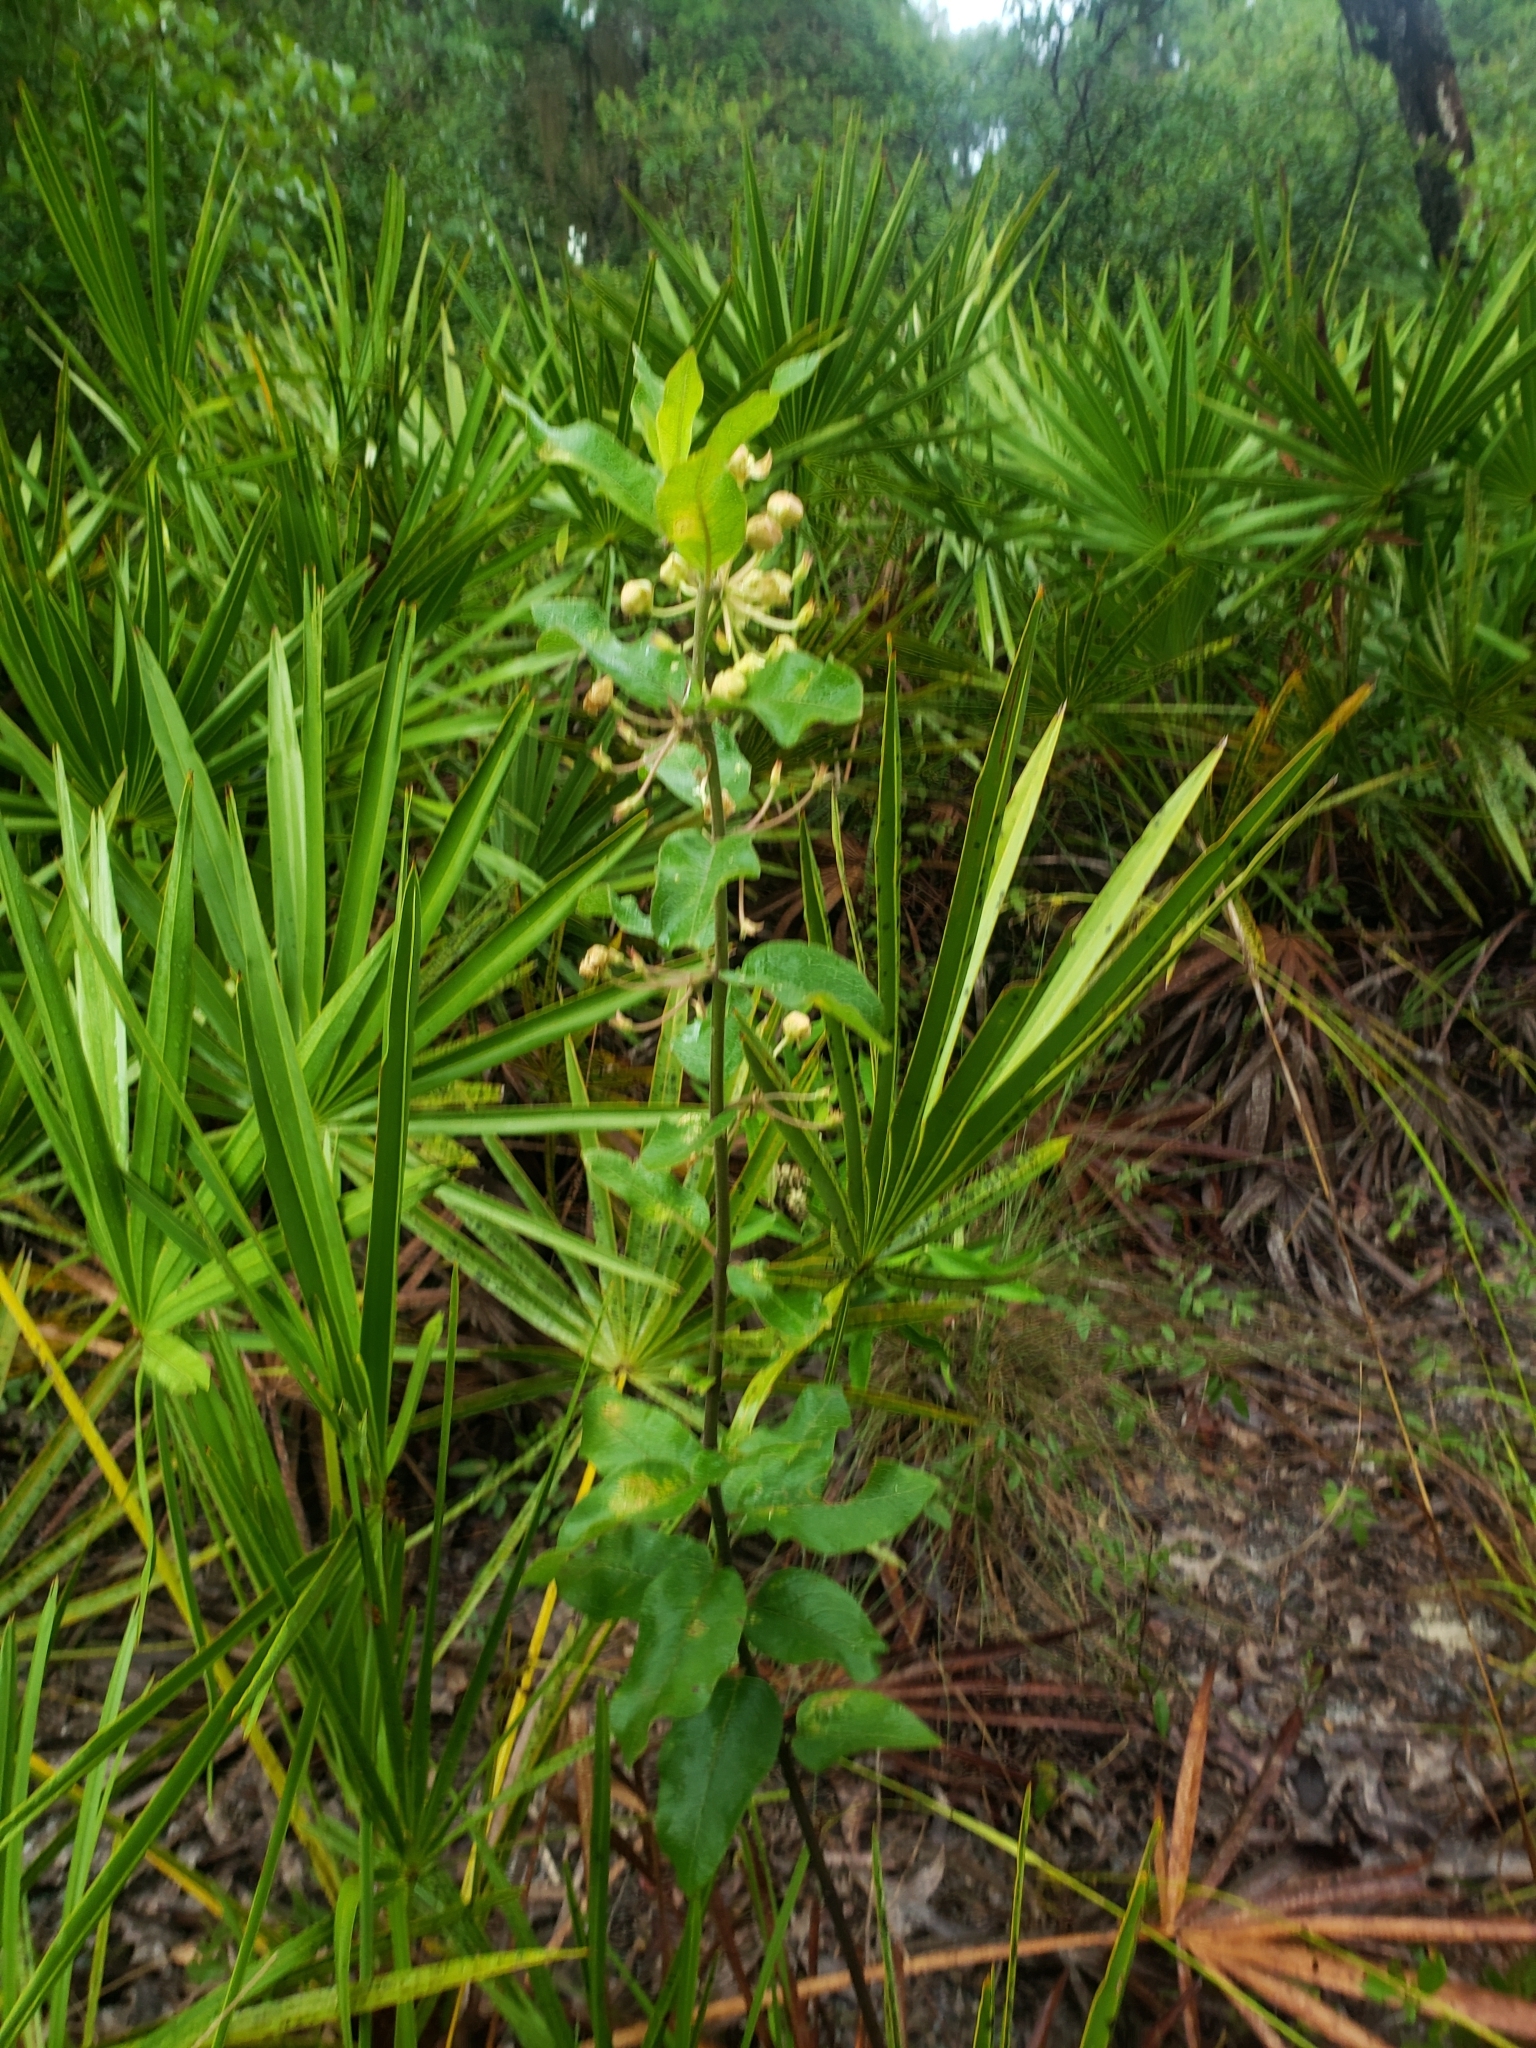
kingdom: Plantae
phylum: Tracheophyta
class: Magnoliopsida
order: Gentianales
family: Apocynaceae
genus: Asclepias
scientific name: Asclepias tomentosa
